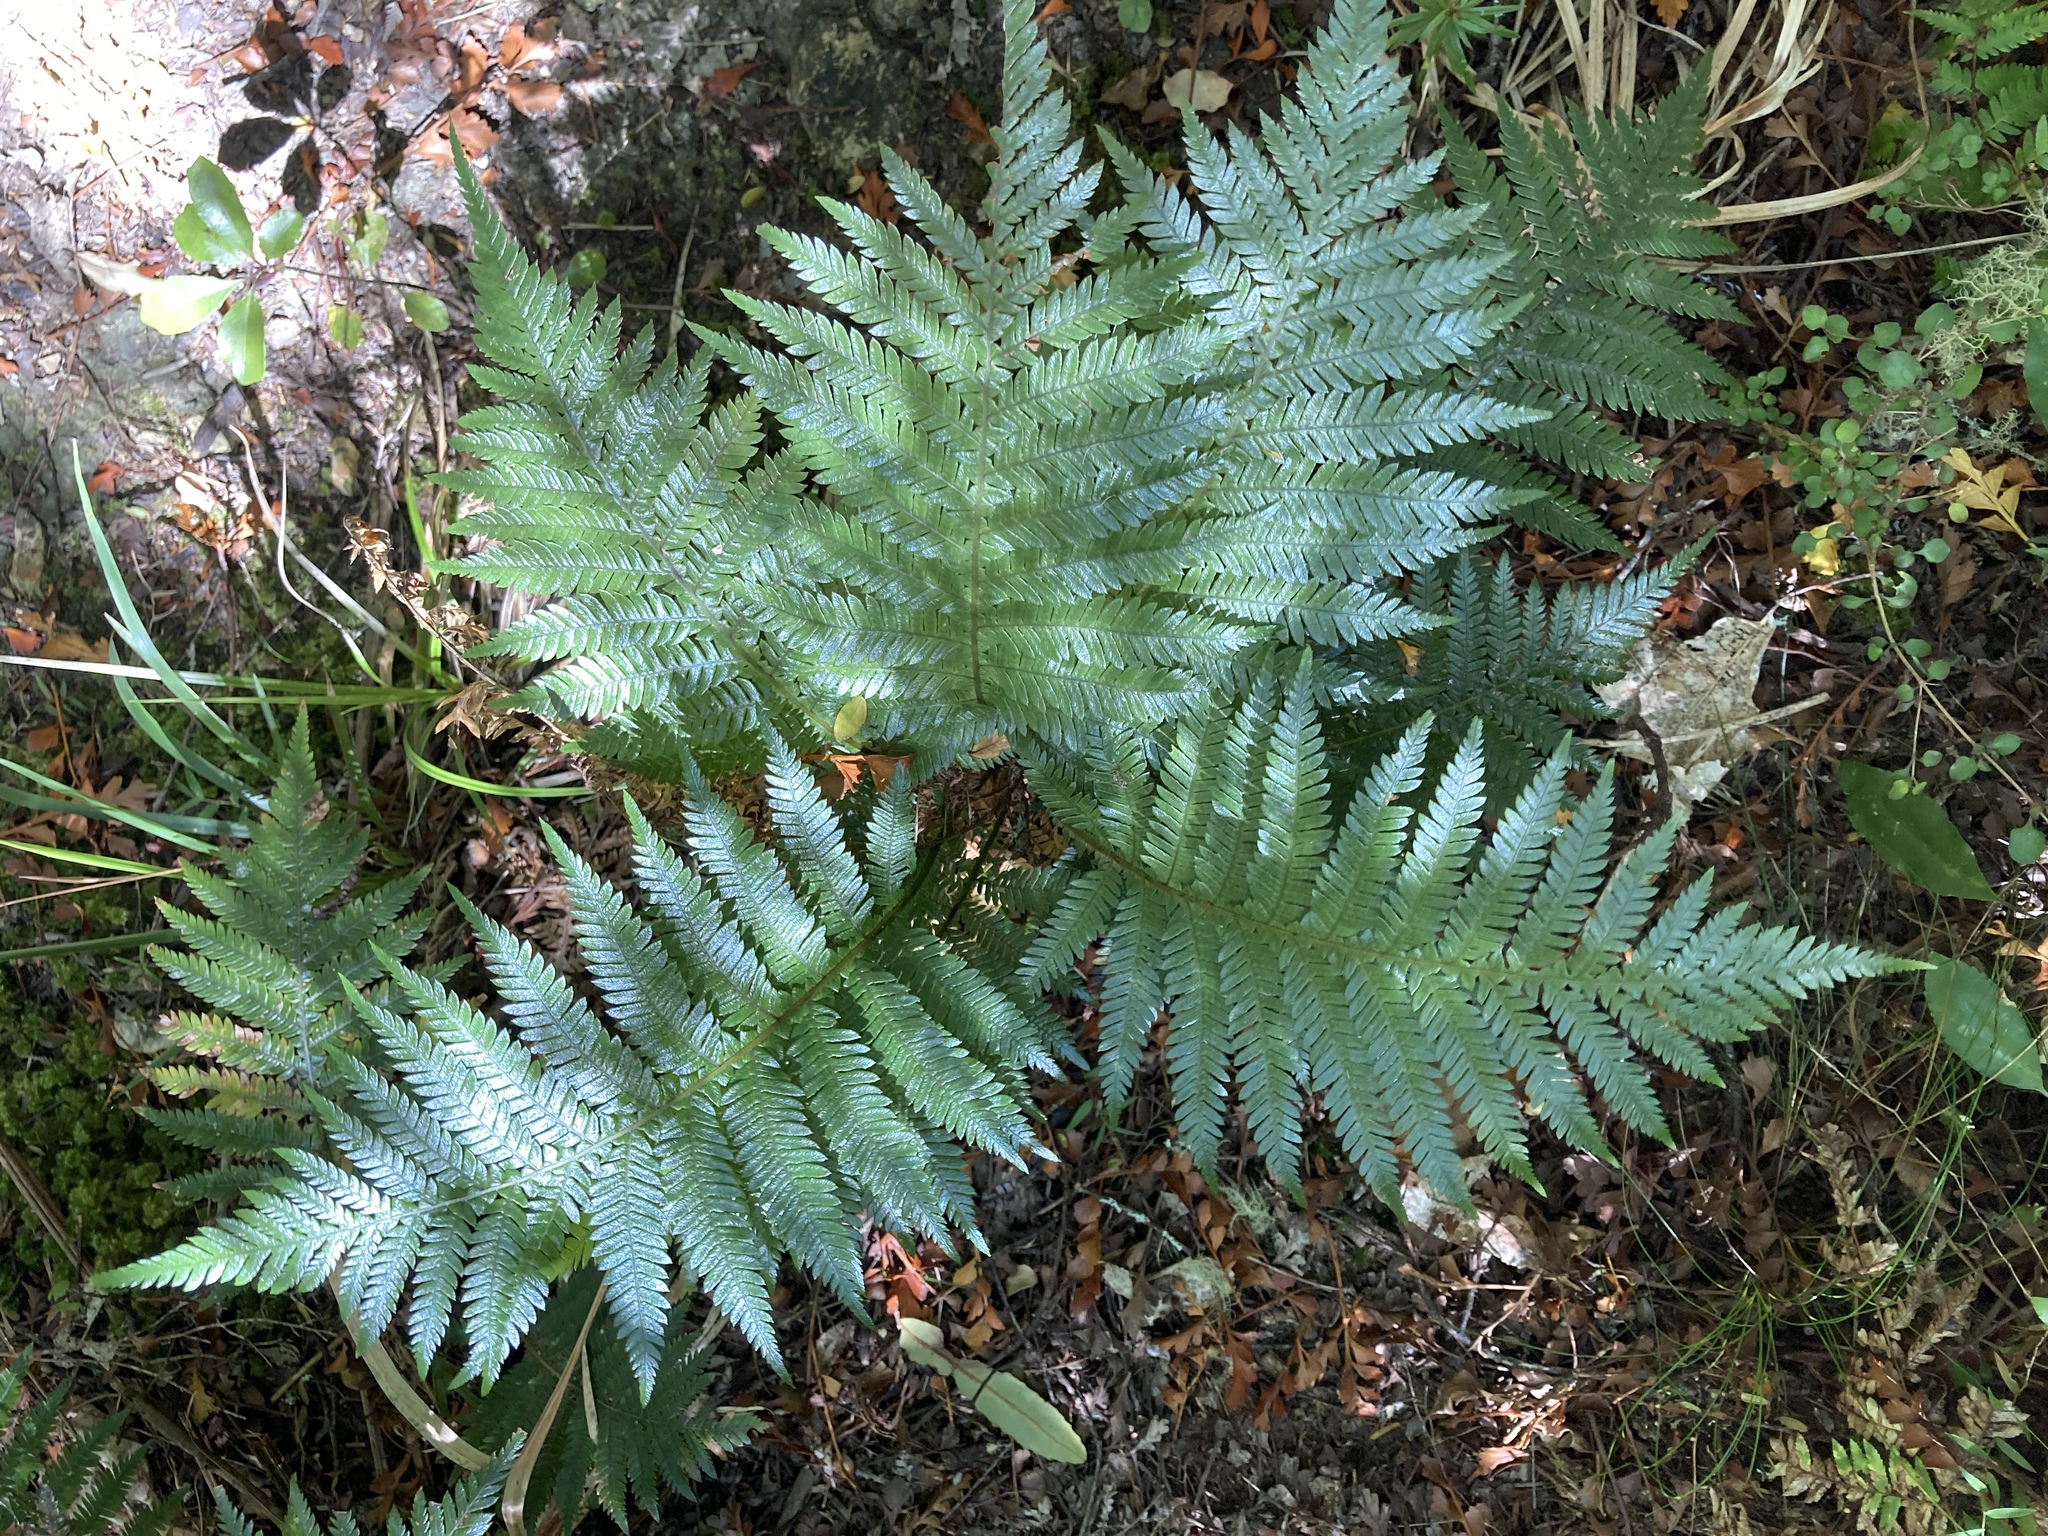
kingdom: Plantae
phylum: Tracheophyta
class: Polypodiopsida
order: Polypodiales
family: Blechnaceae
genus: Diploblechnum
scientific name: Diploblechnum fraseri
